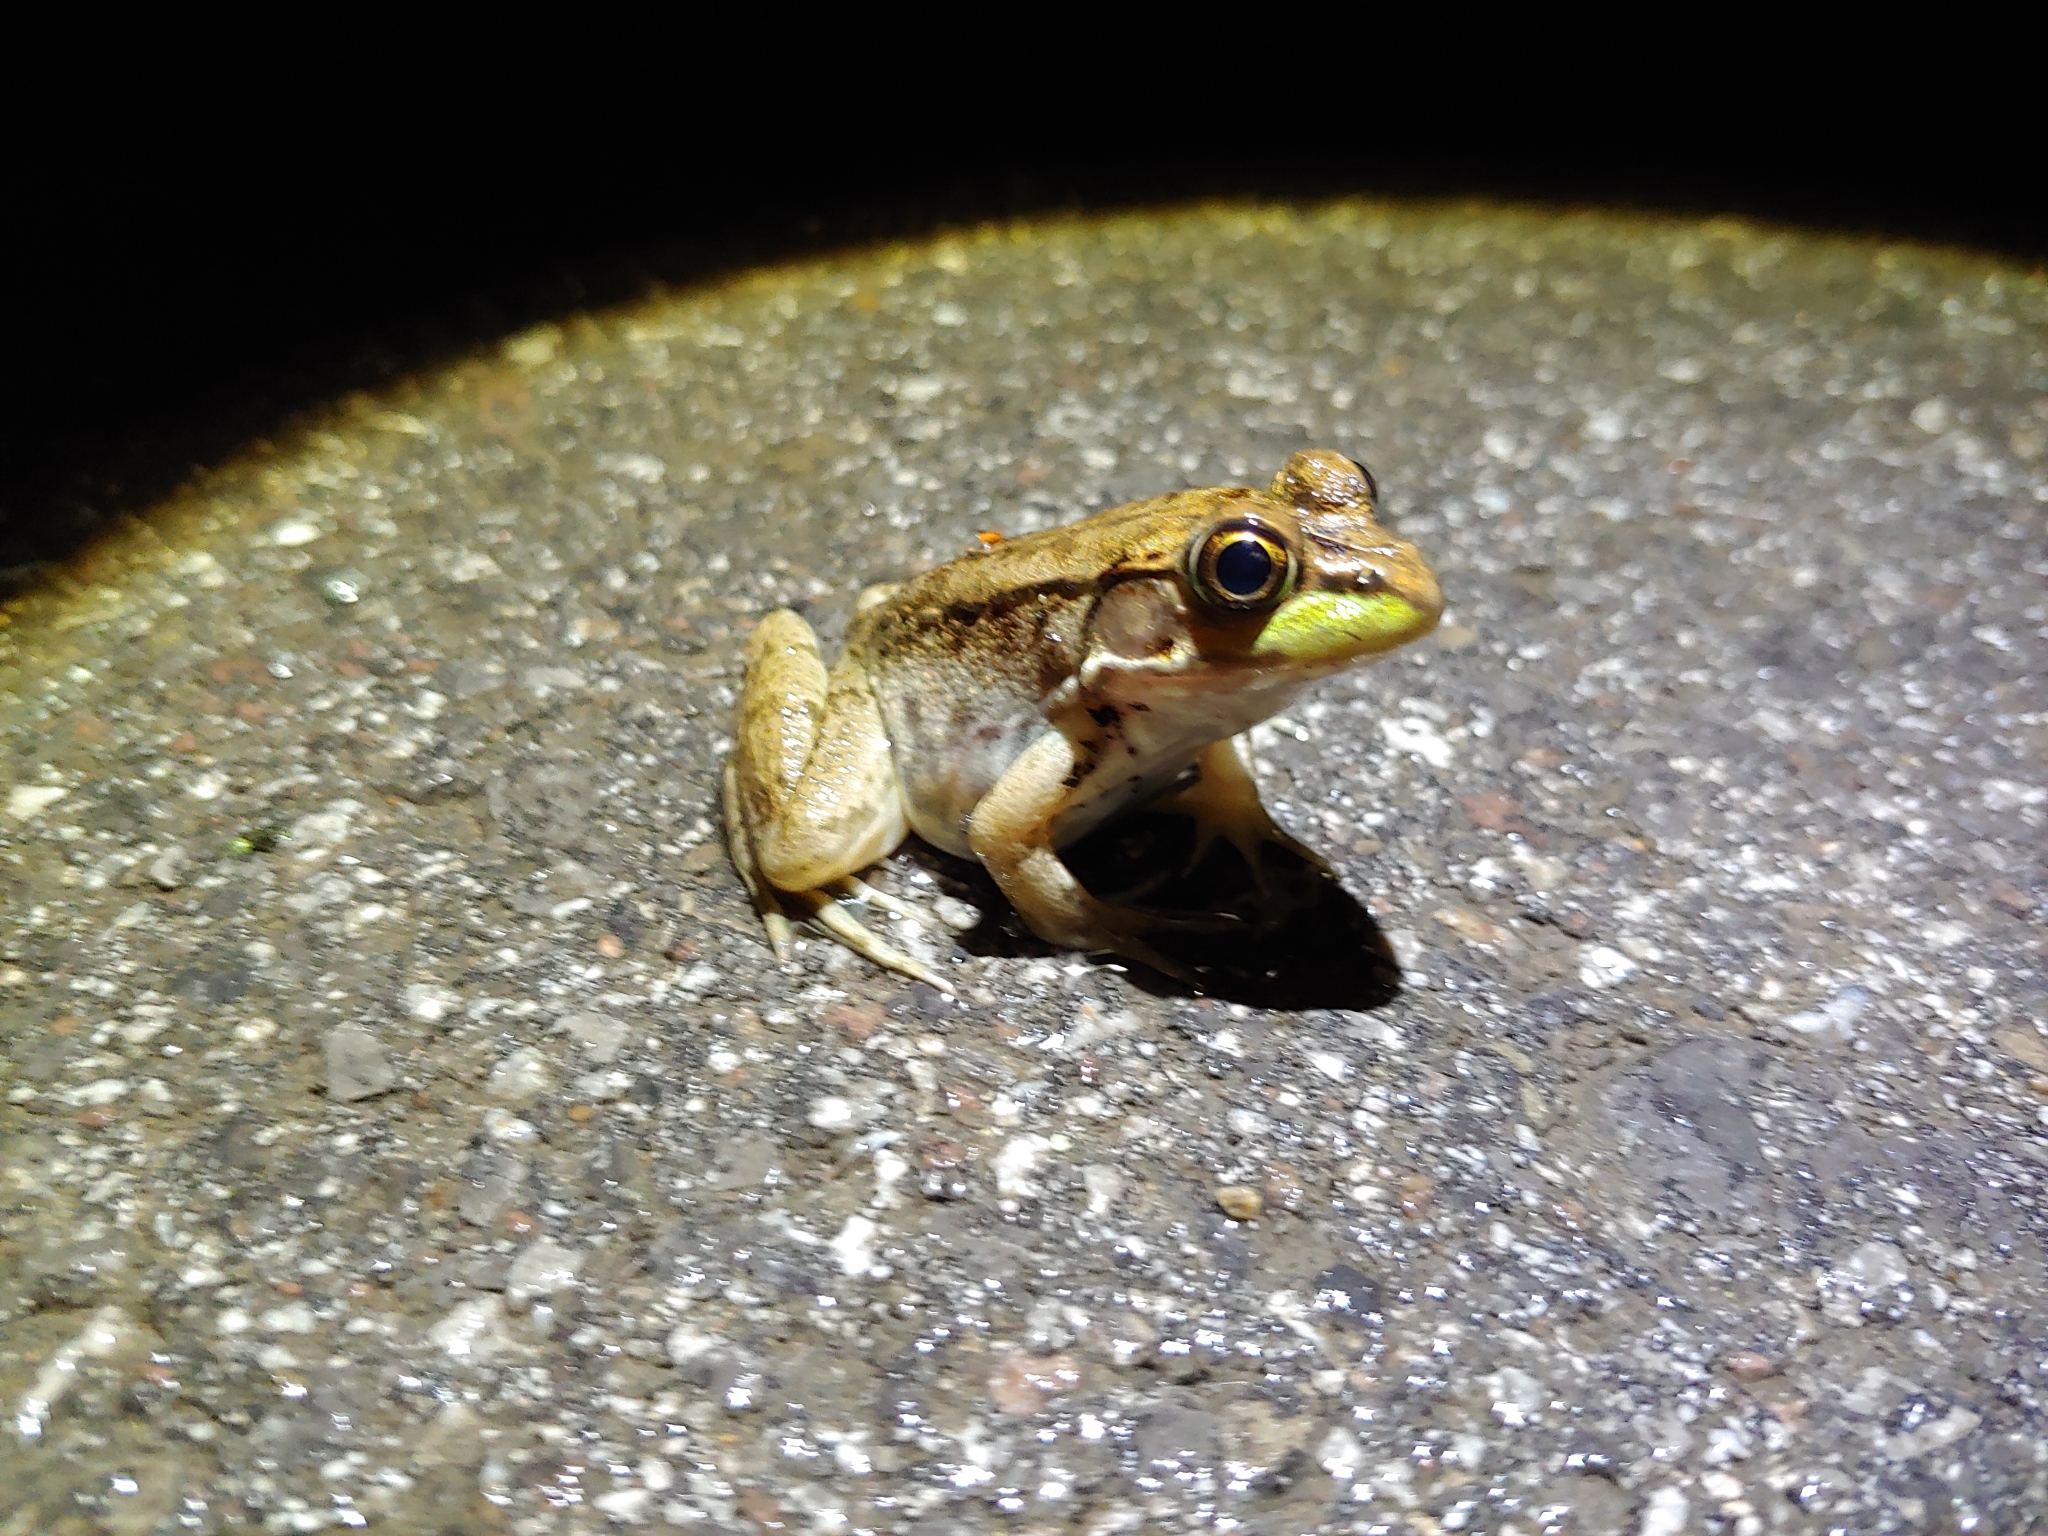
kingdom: Animalia
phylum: Chordata
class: Amphibia
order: Anura
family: Ranidae
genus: Lithobates
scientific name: Lithobates clamitans
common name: Green frog
